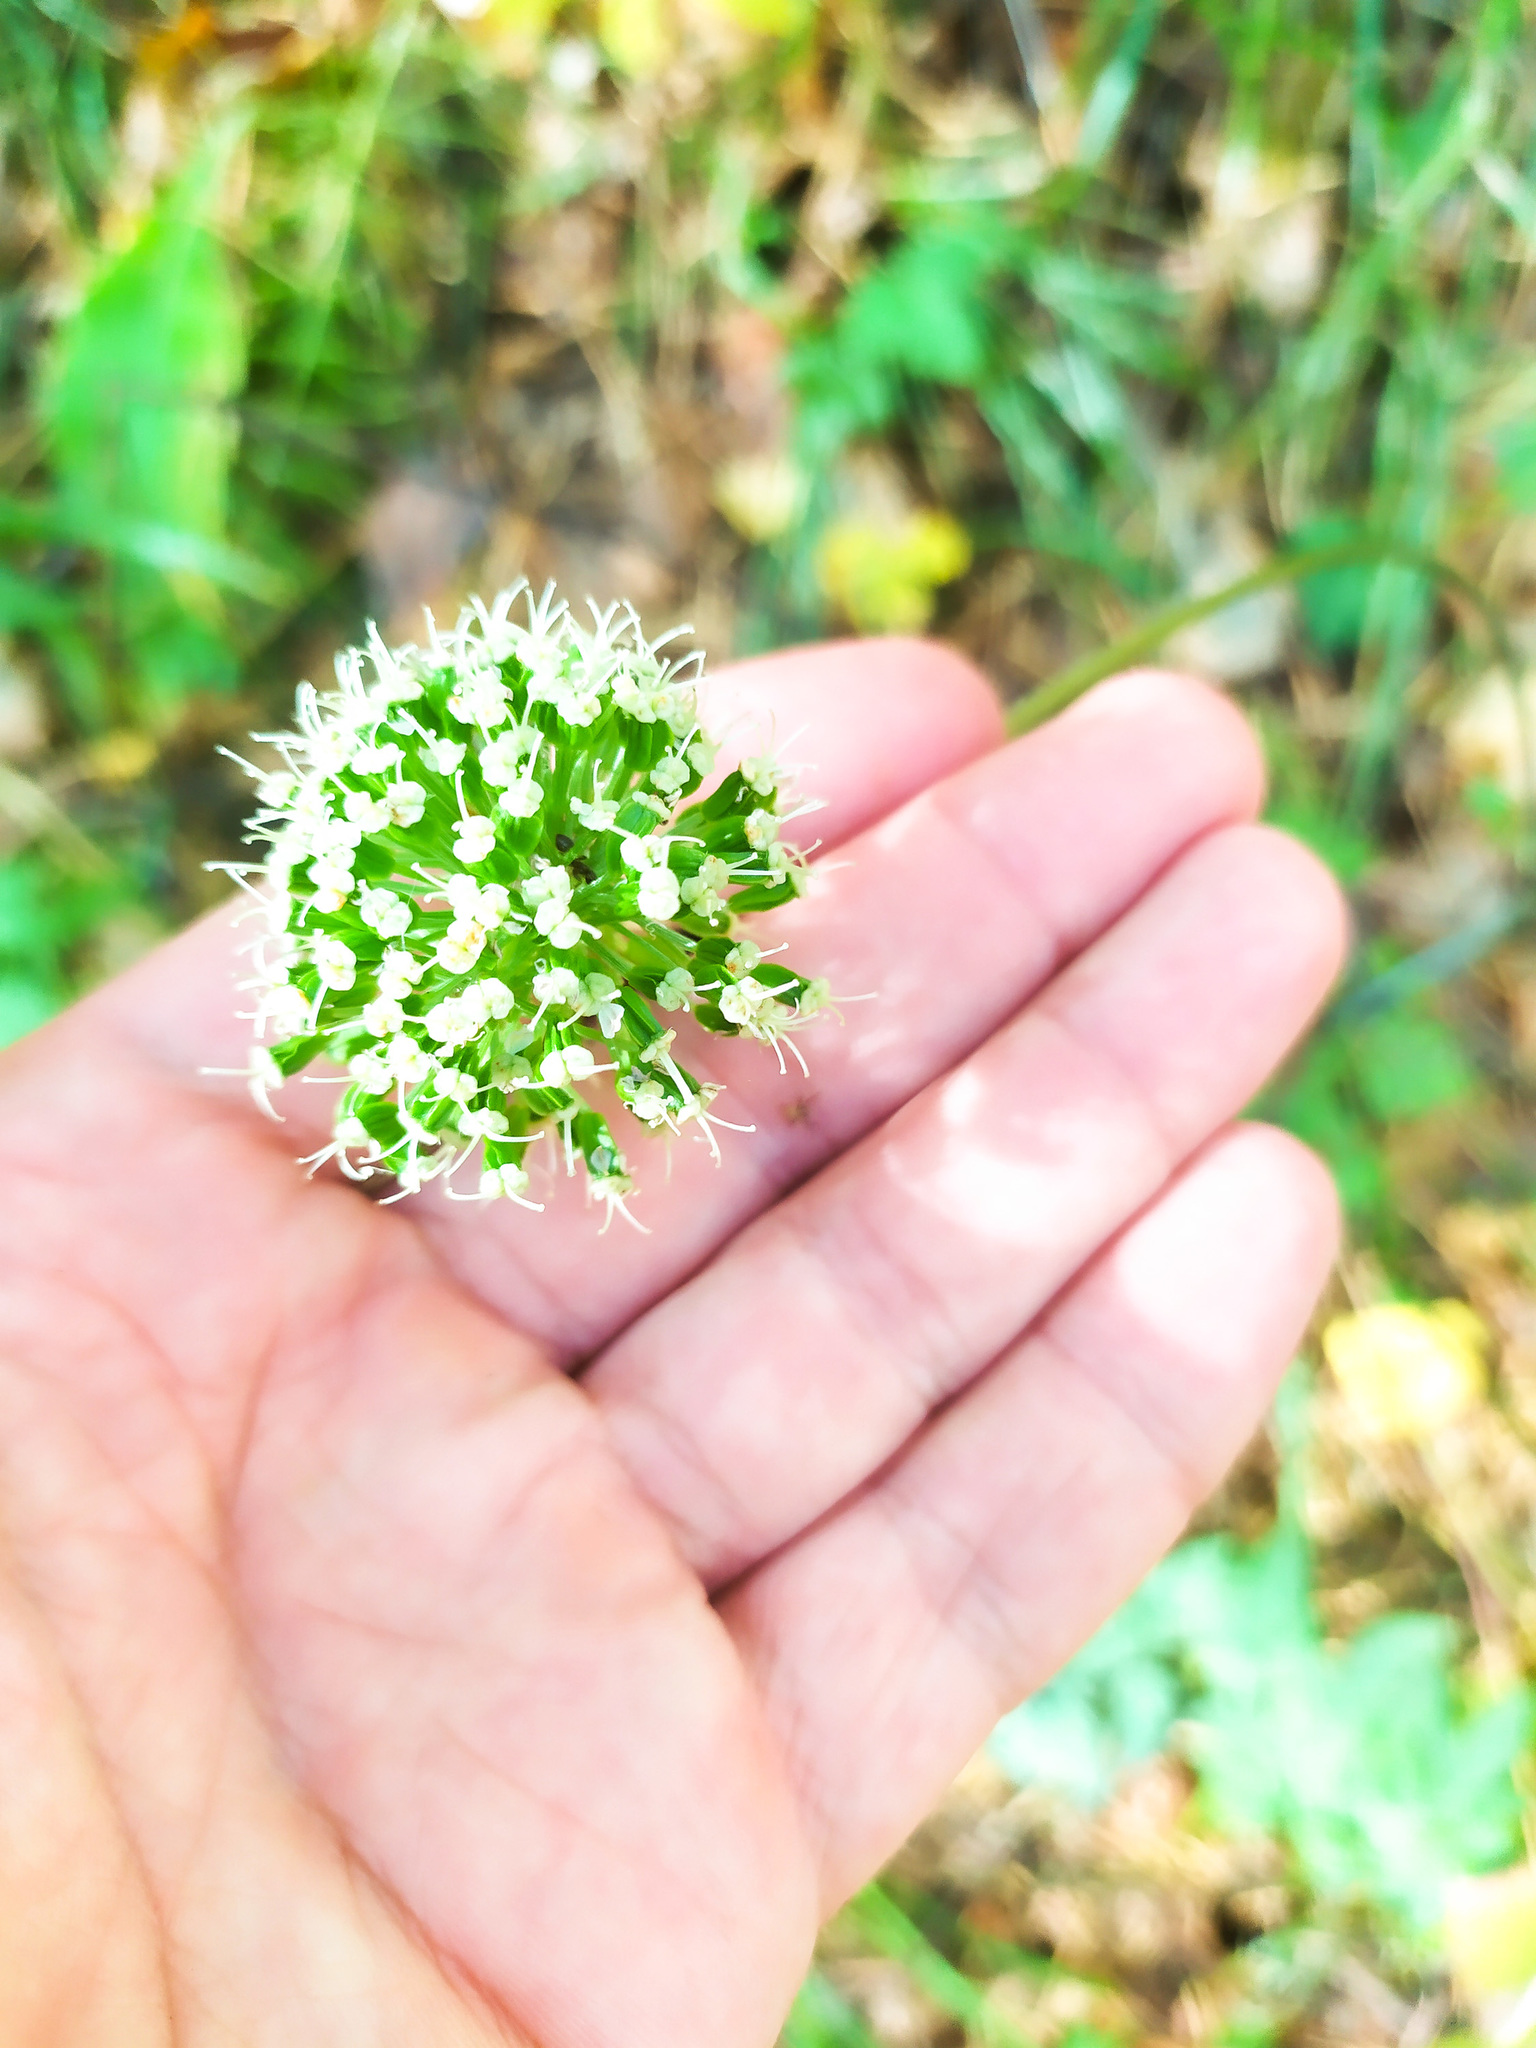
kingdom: Plantae
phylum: Tracheophyta
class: Magnoliopsida
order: Apiales
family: Apiaceae
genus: Angelica
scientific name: Angelica sylvestris
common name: Wild angelica
